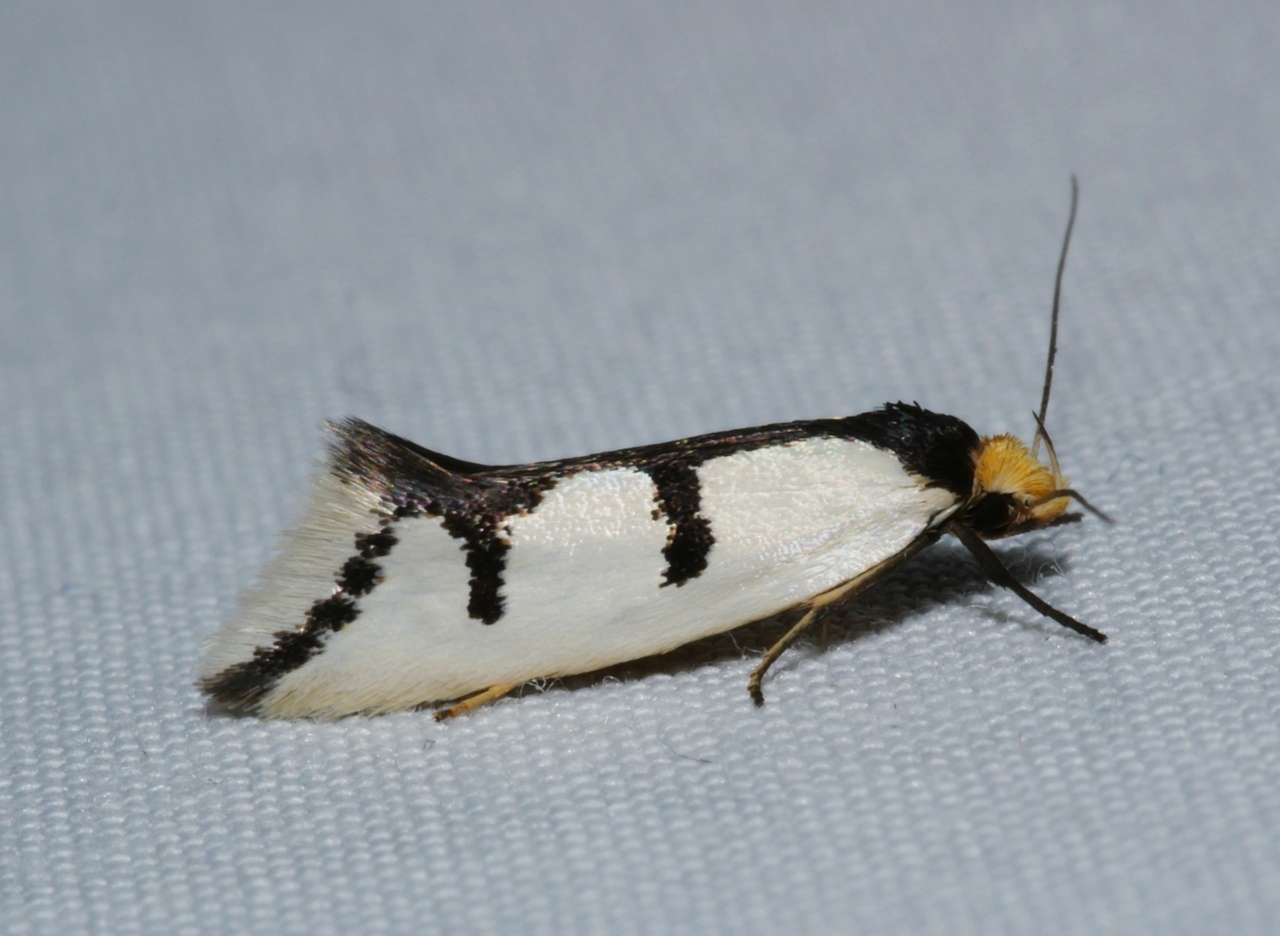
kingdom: Animalia
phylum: Arthropoda
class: Insecta
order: Lepidoptera
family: Oecophoridae
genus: Ocystola
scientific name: Ocystola crystallina
